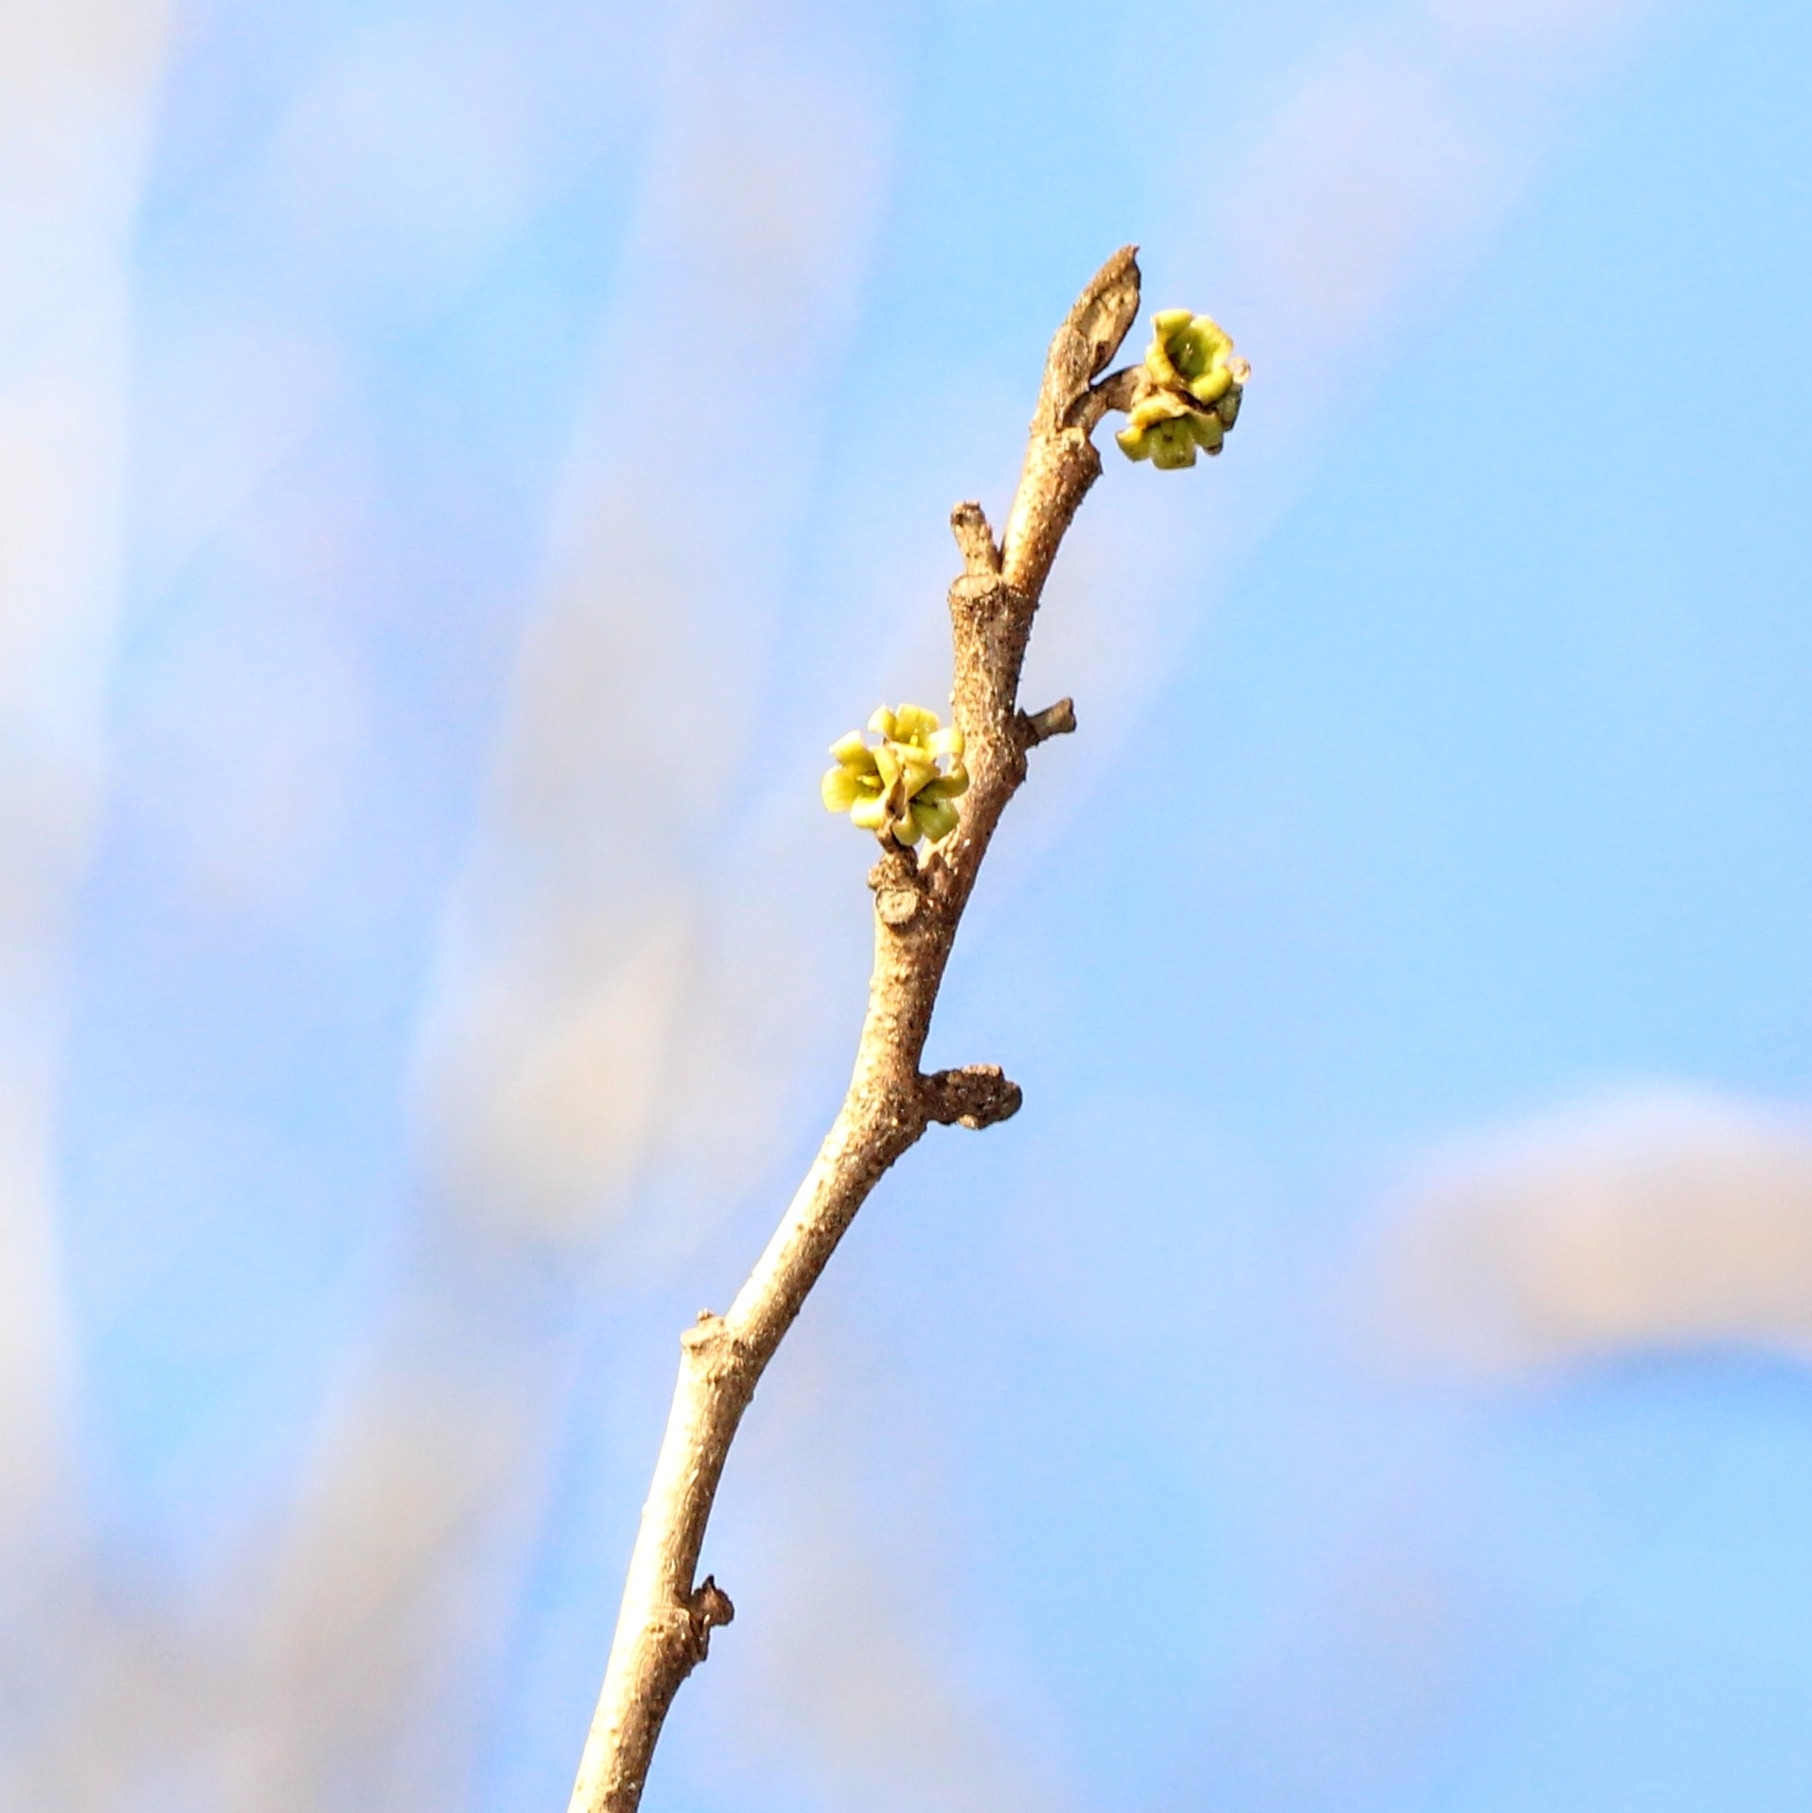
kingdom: Plantae
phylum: Tracheophyta
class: Magnoliopsida
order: Saxifragales
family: Hamamelidaceae
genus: Hamamelis
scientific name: Hamamelis virginiana
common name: Witch-hazel
